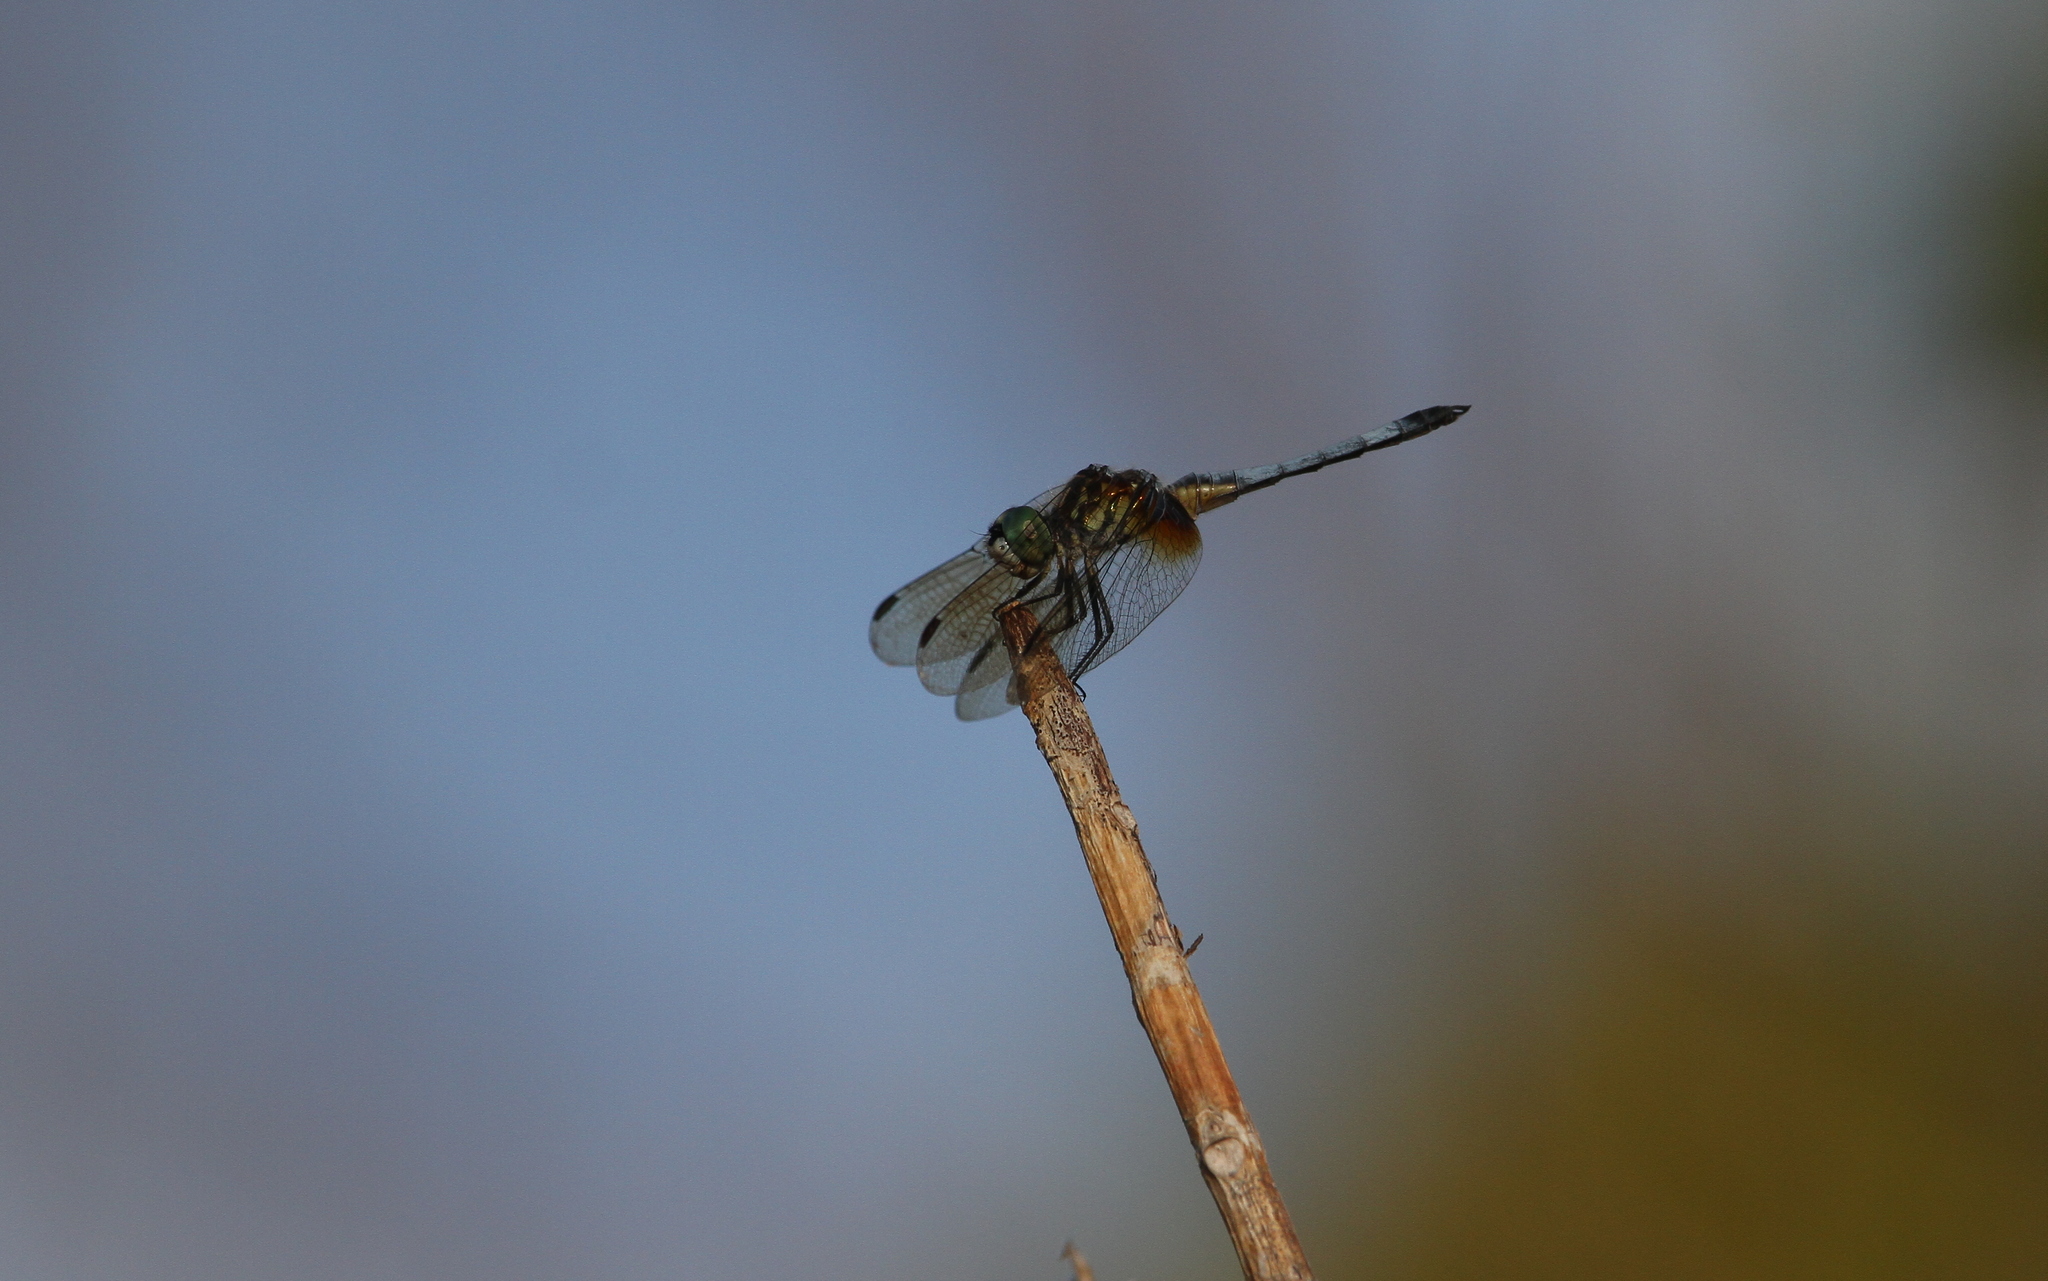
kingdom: Animalia
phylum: Arthropoda
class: Insecta
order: Odonata
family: Libellulidae
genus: Pachydiplax
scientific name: Pachydiplax longipennis
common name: Blue dasher
